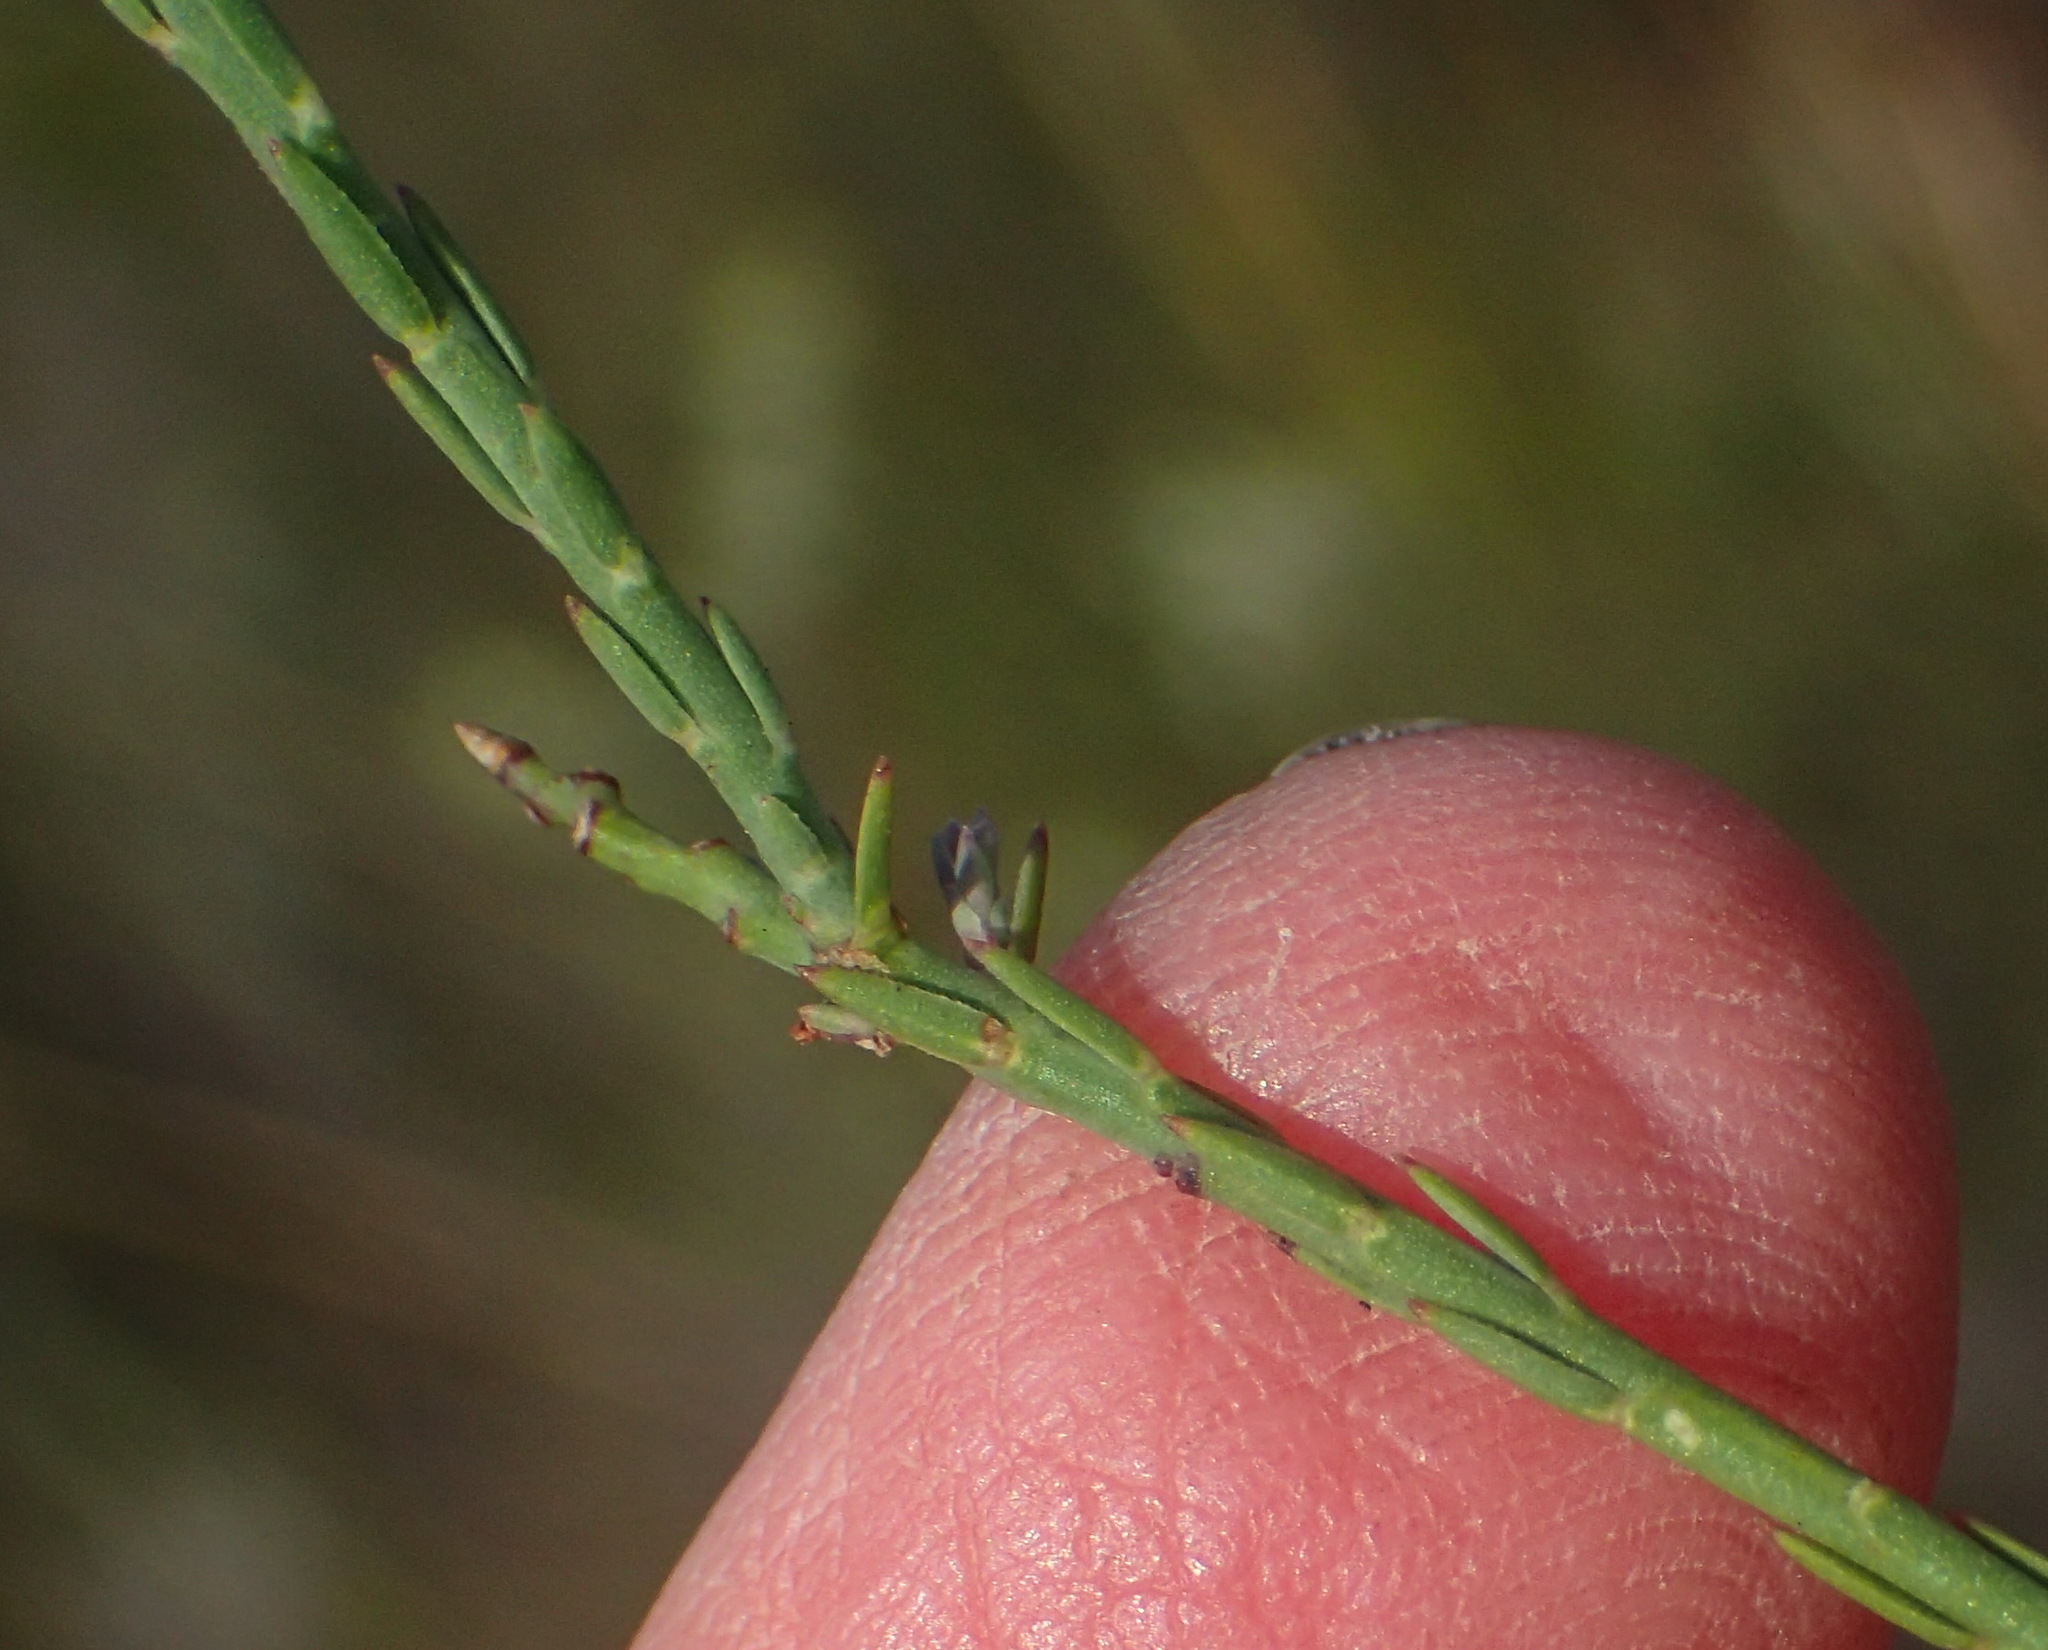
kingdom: Plantae
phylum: Tracheophyta
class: Magnoliopsida
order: Fabales
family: Polygalaceae
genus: Polygala
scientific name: Polygala microlopha
